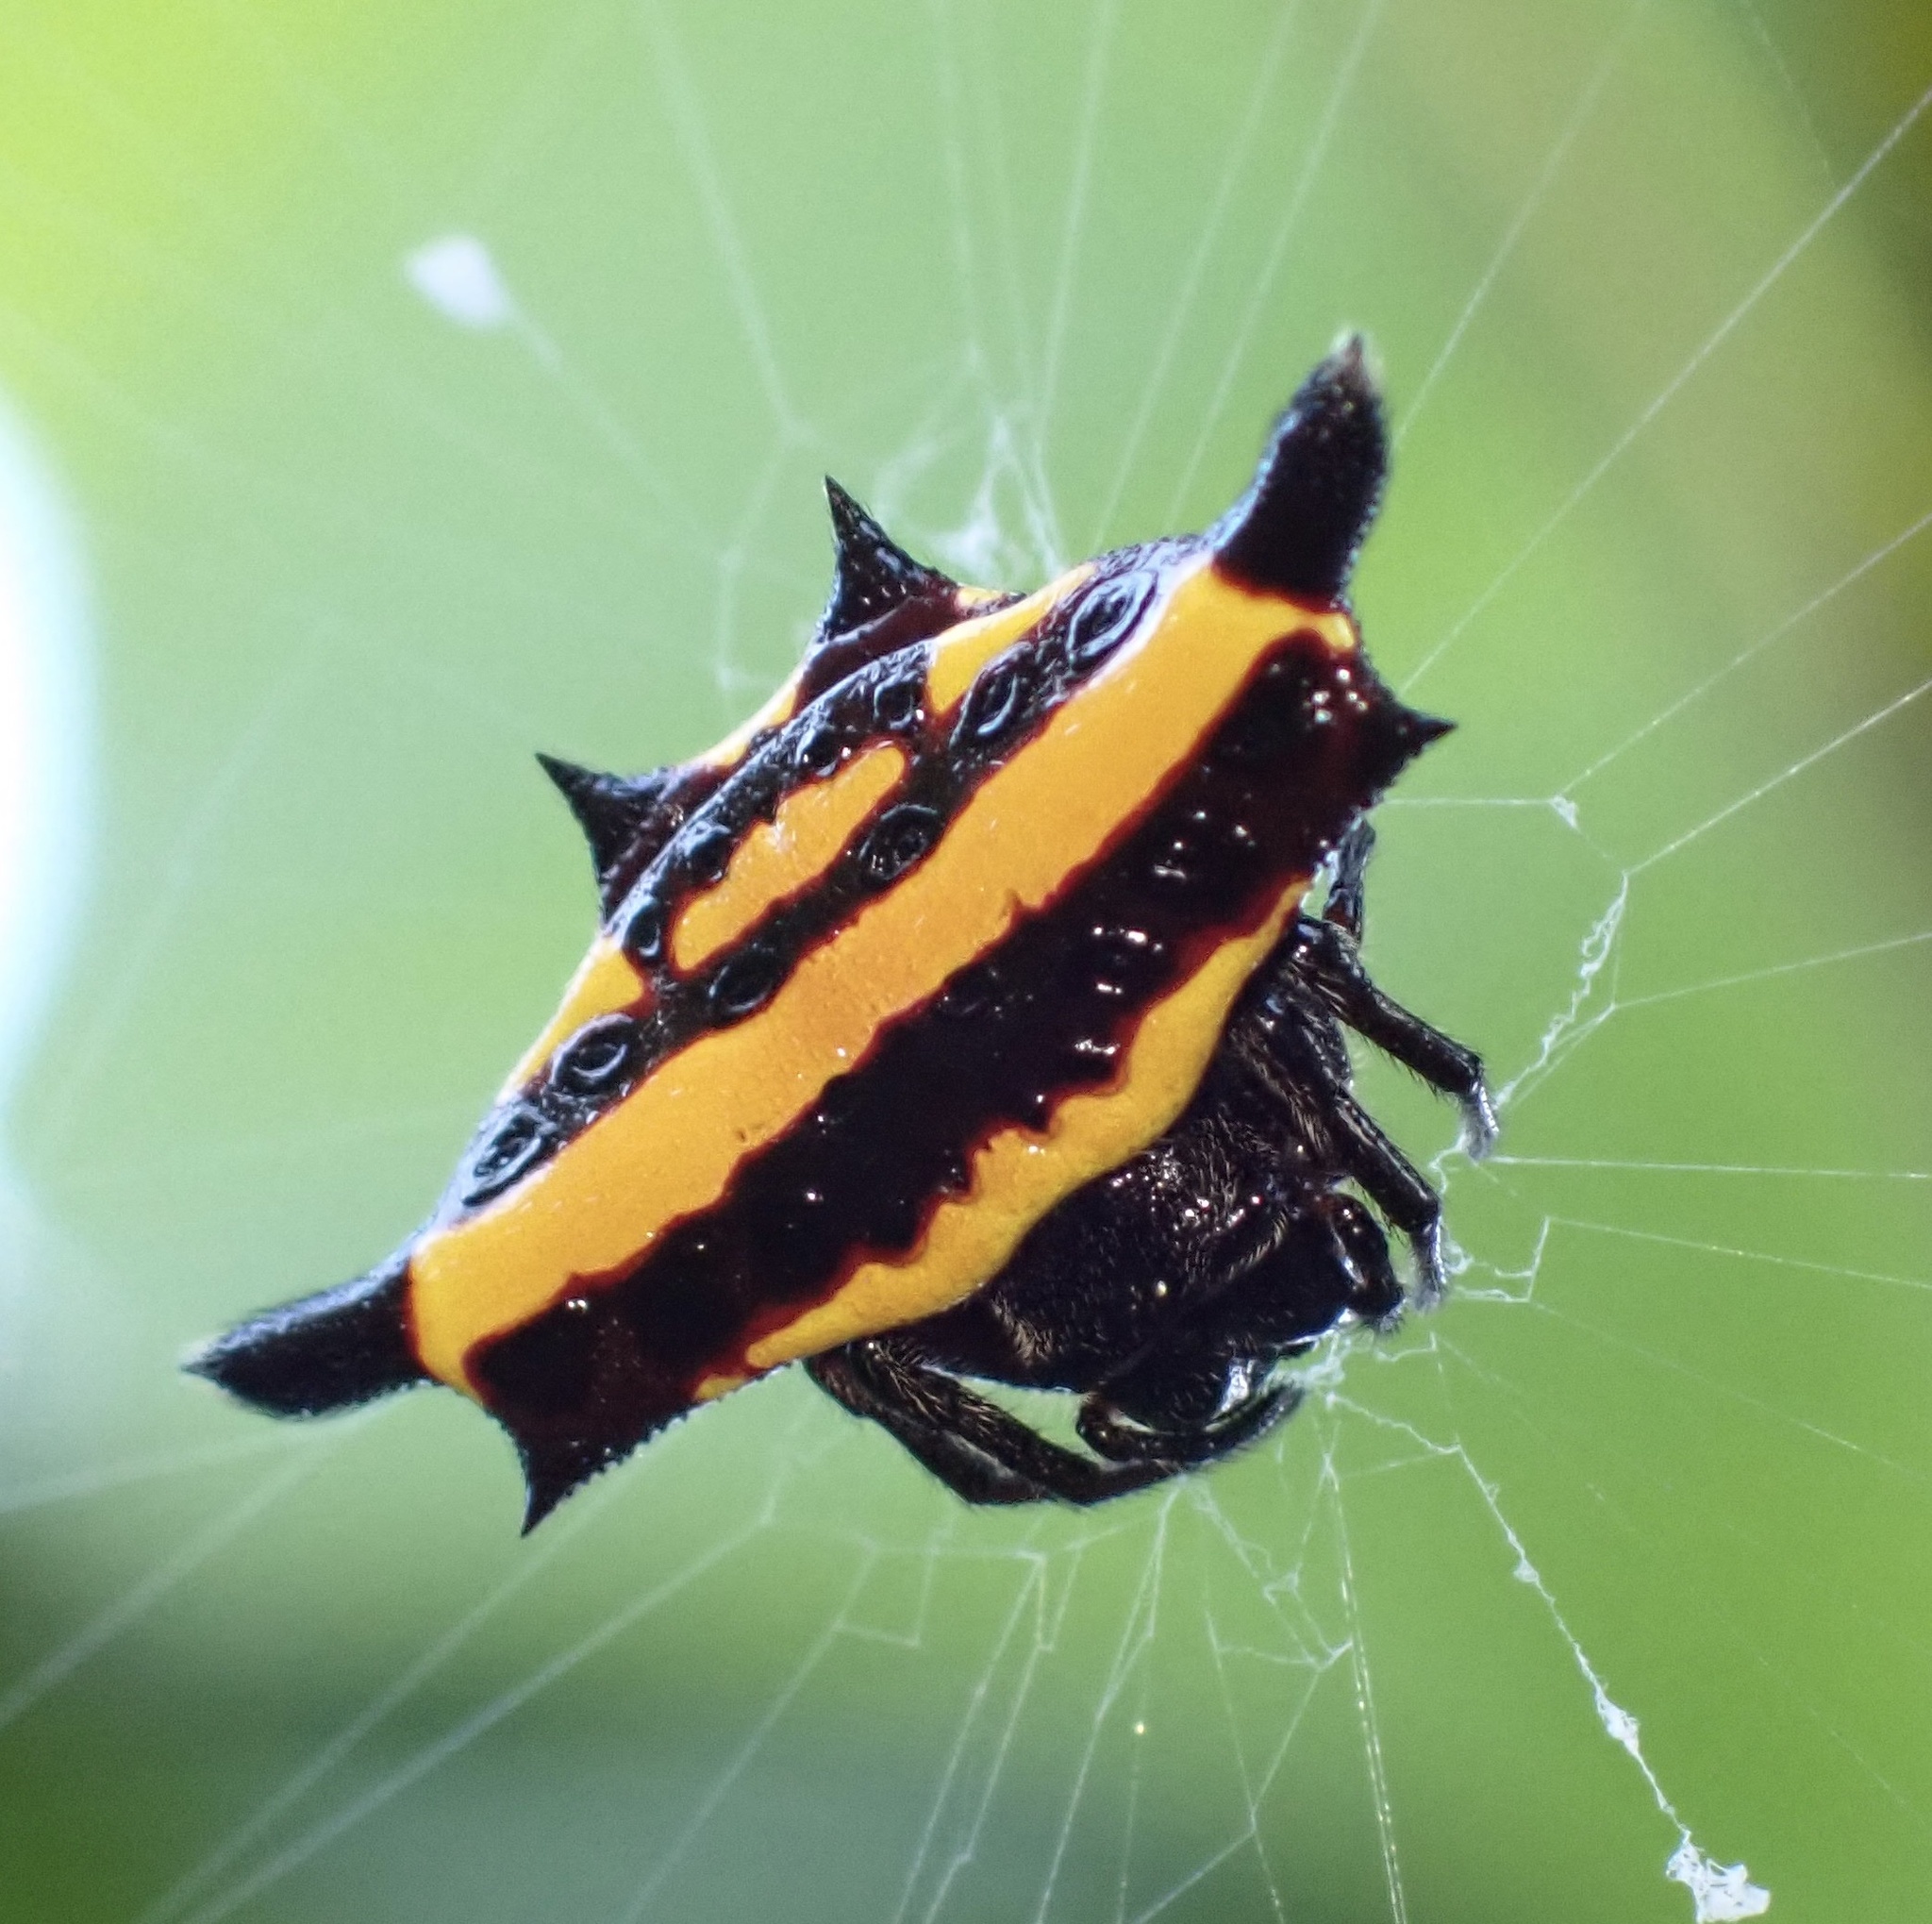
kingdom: Animalia
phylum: Arthropoda
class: Arachnida
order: Araneae
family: Araneidae
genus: Gasteracantha
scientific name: Gasteracantha taeniata
